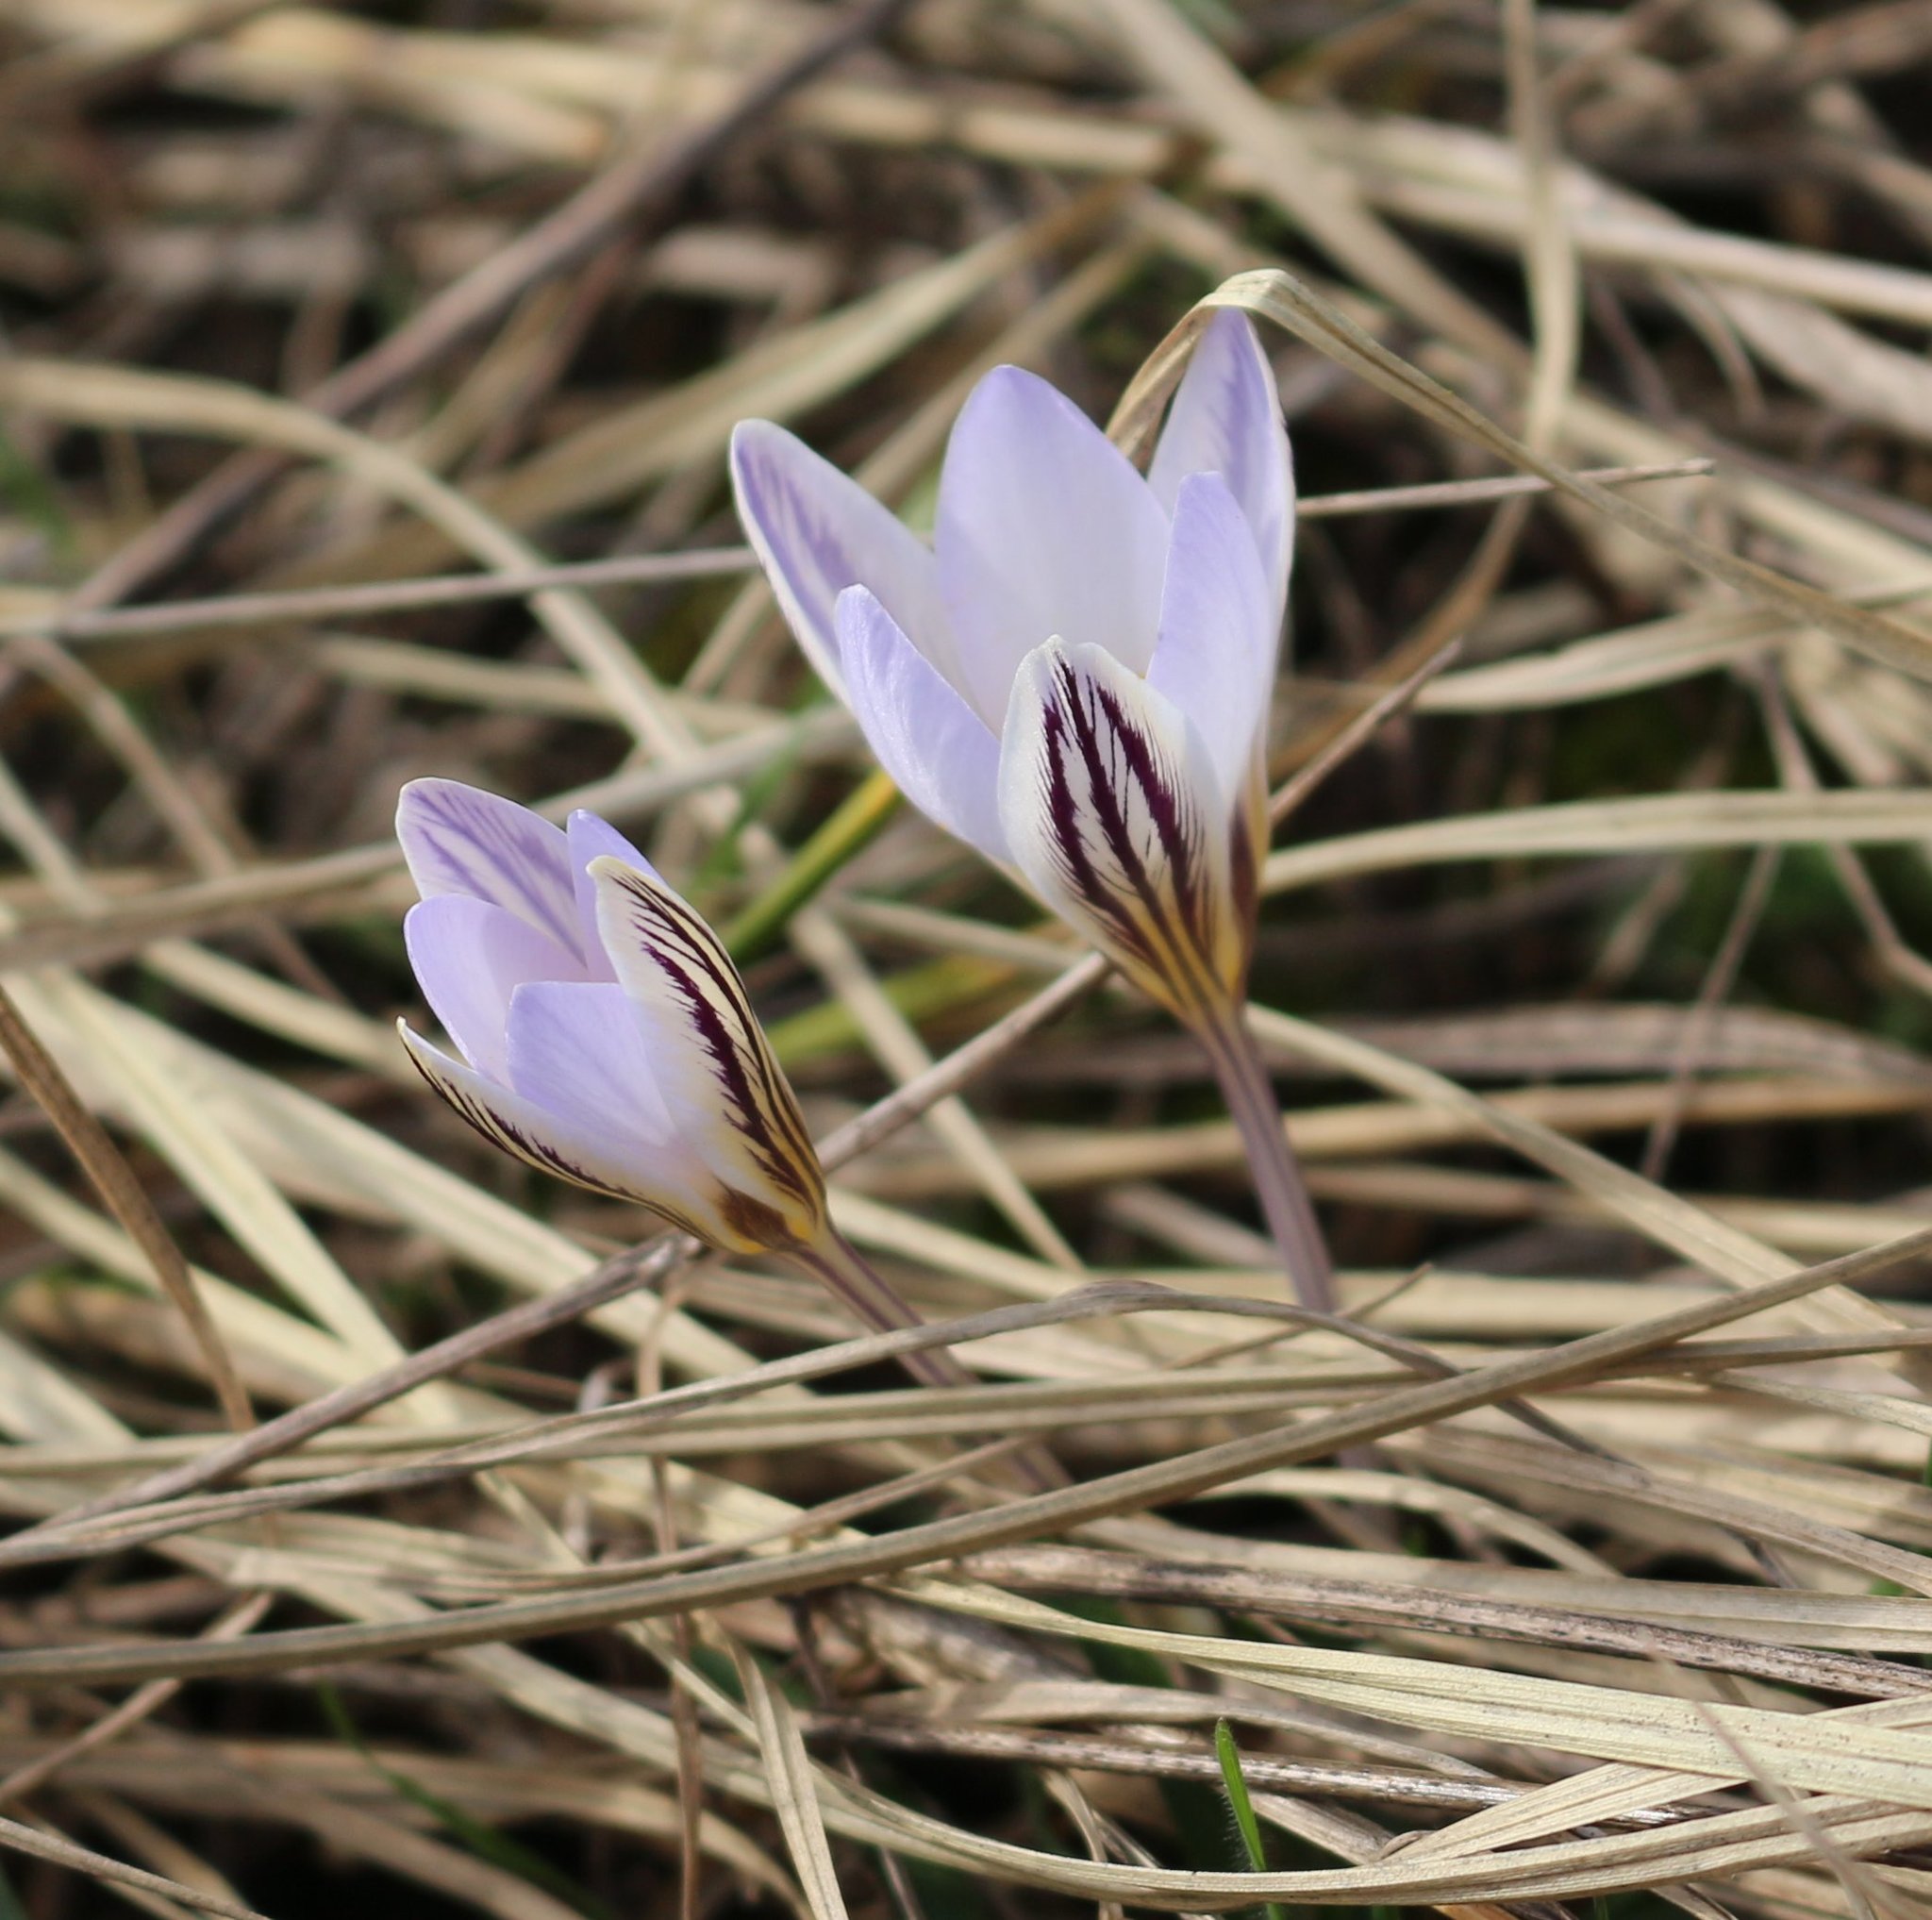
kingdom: Plantae
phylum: Tracheophyta
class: Liliopsida
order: Asparagales
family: Iridaceae
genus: Crocus
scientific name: Crocus reticulatus
